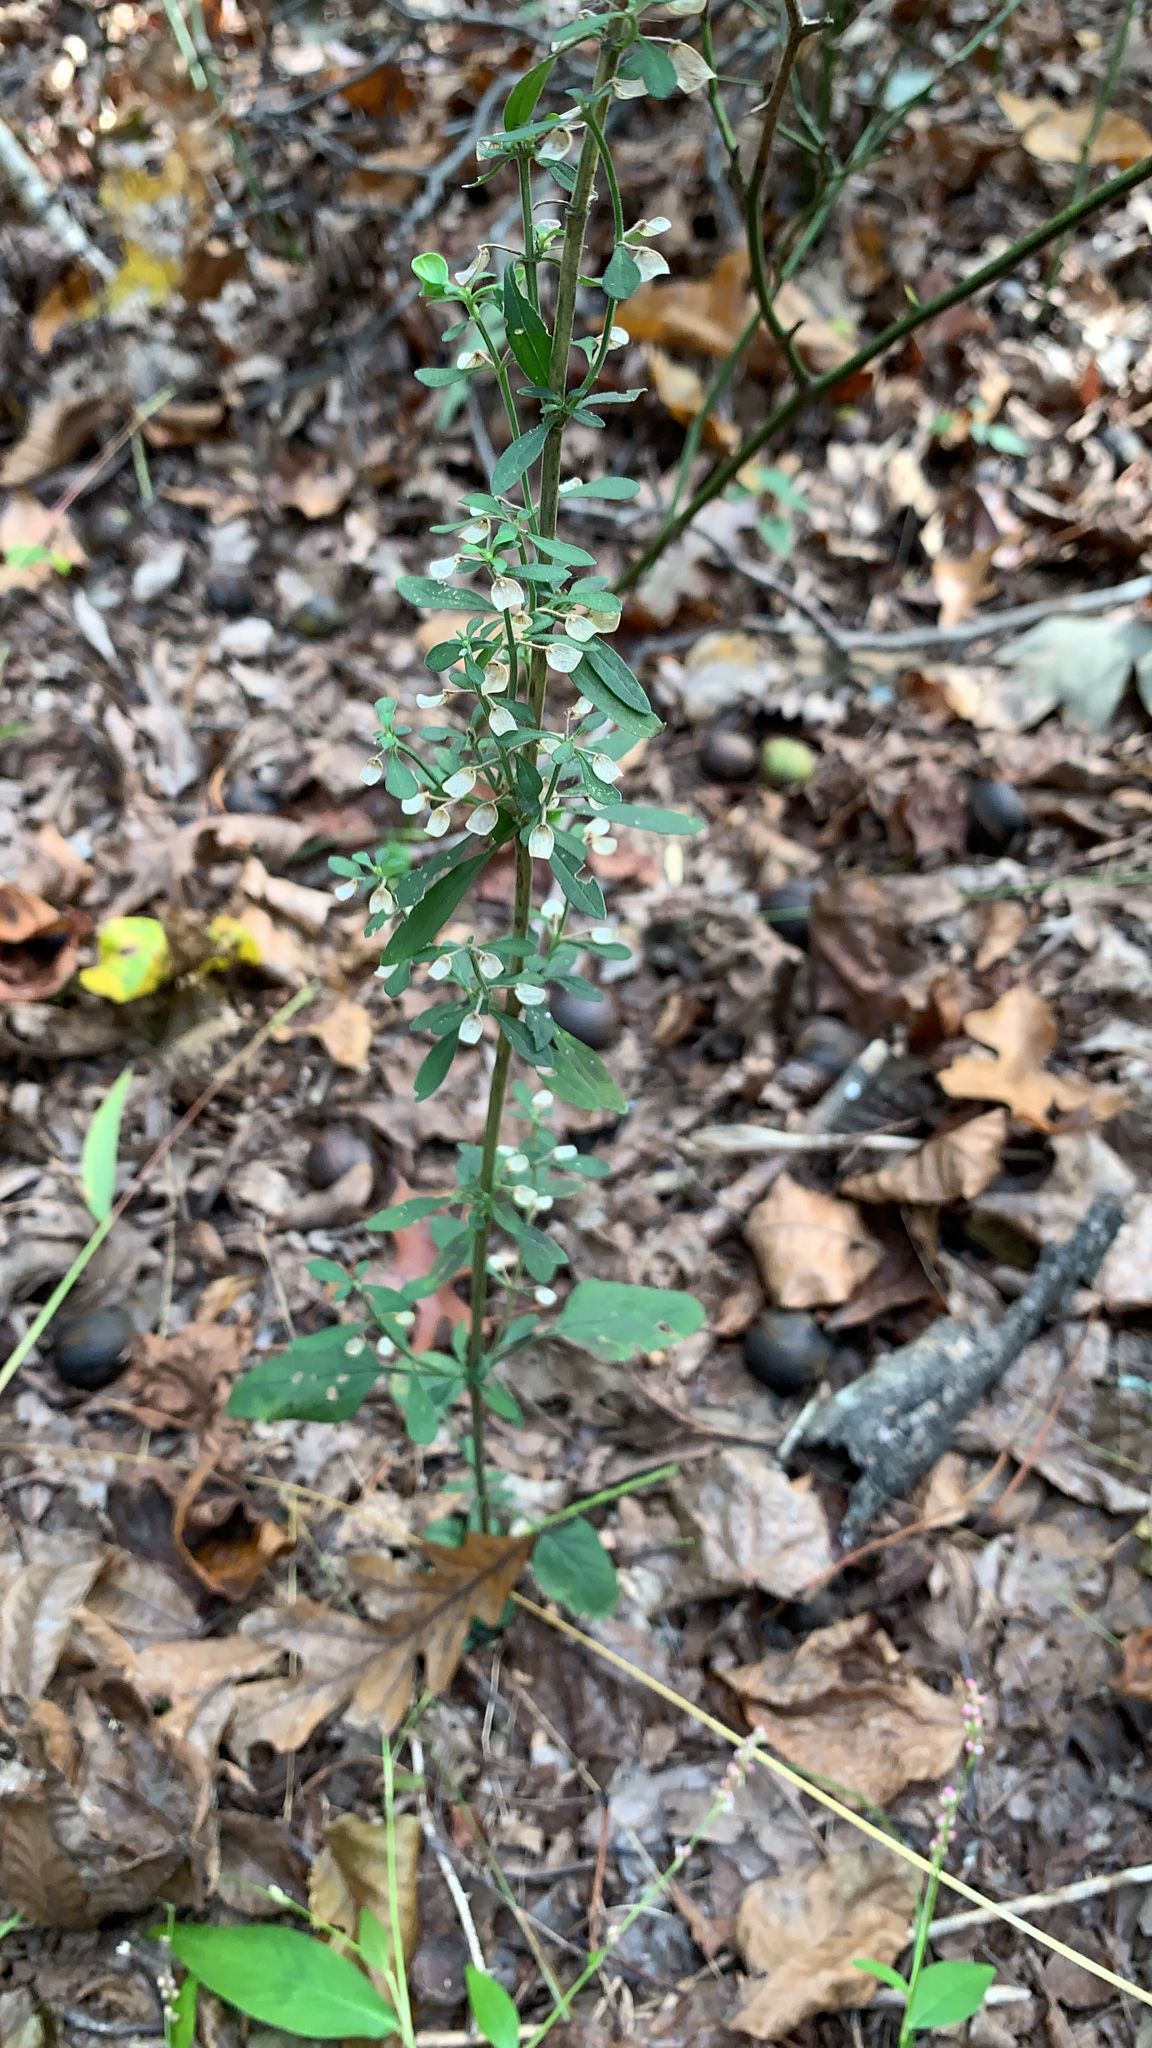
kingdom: Plantae
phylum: Tracheophyta
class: Magnoliopsida
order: Lamiales
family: Lamiaceae
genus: Scutellaria
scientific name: Scutellaria integrifolia
